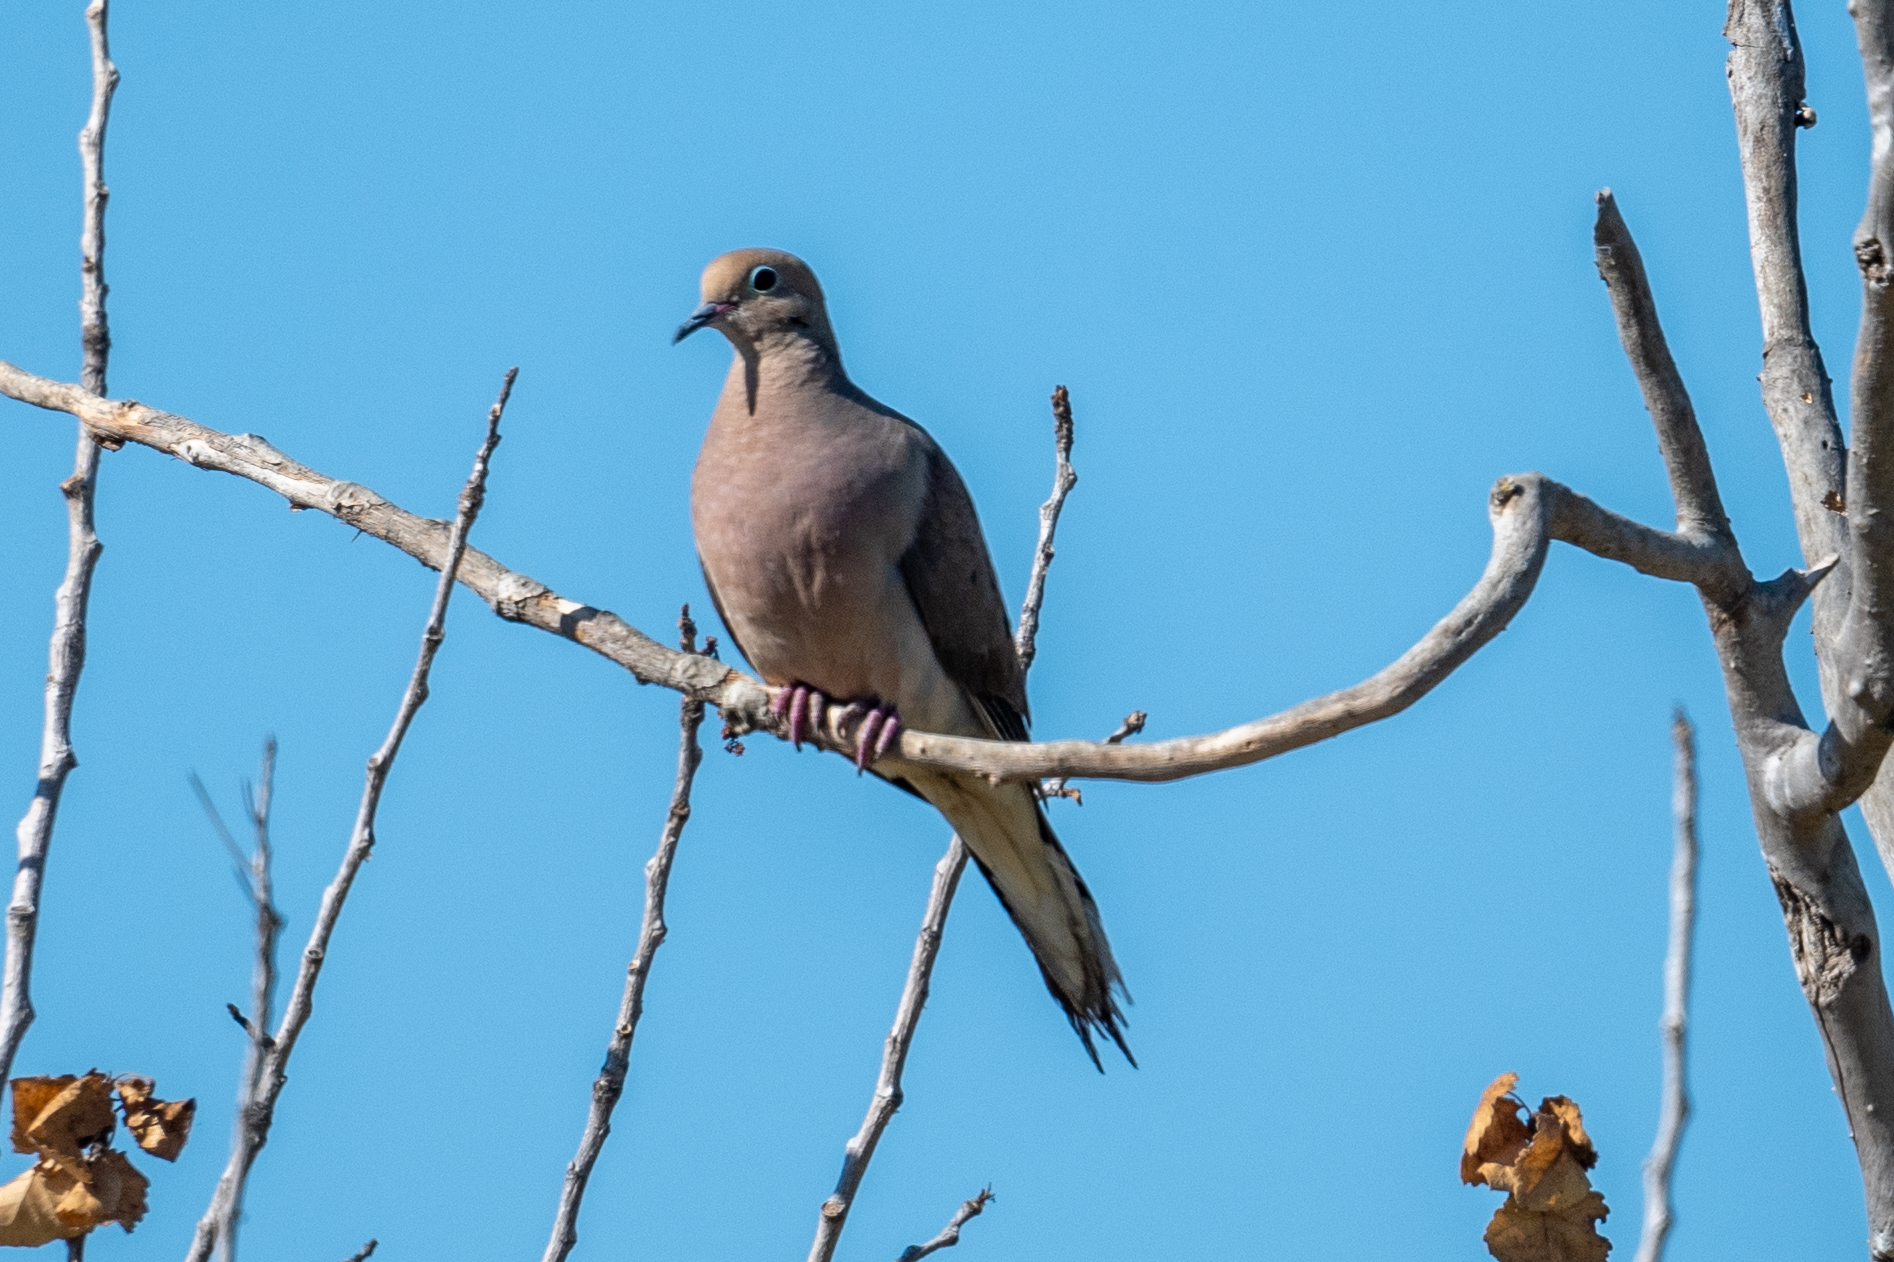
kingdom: Animalia
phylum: Chordata
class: Aves
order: Columbiformes
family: Columbidae
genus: Zenaida
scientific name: Zenaida macroura
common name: Mourning dove
